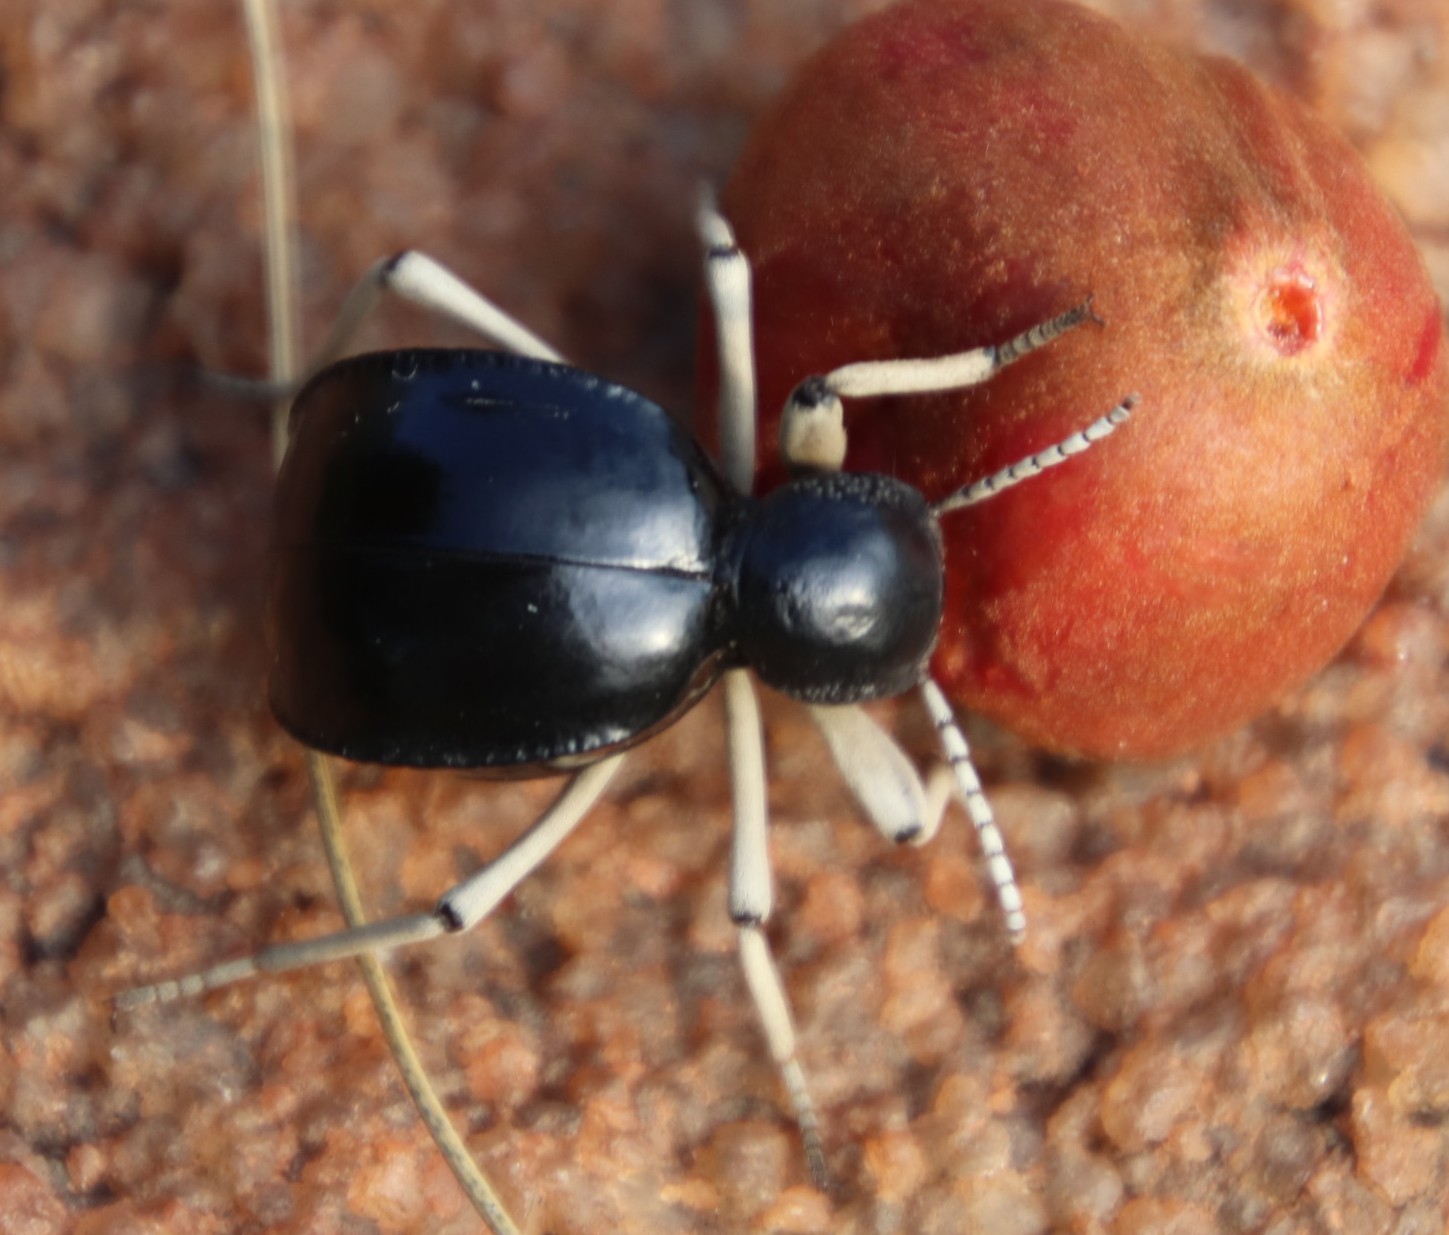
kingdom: Animalia
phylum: Arthropoda
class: Insecta
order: Coleoptera
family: Tenebrionidae
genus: Dichtha
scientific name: Dichtha cubica
